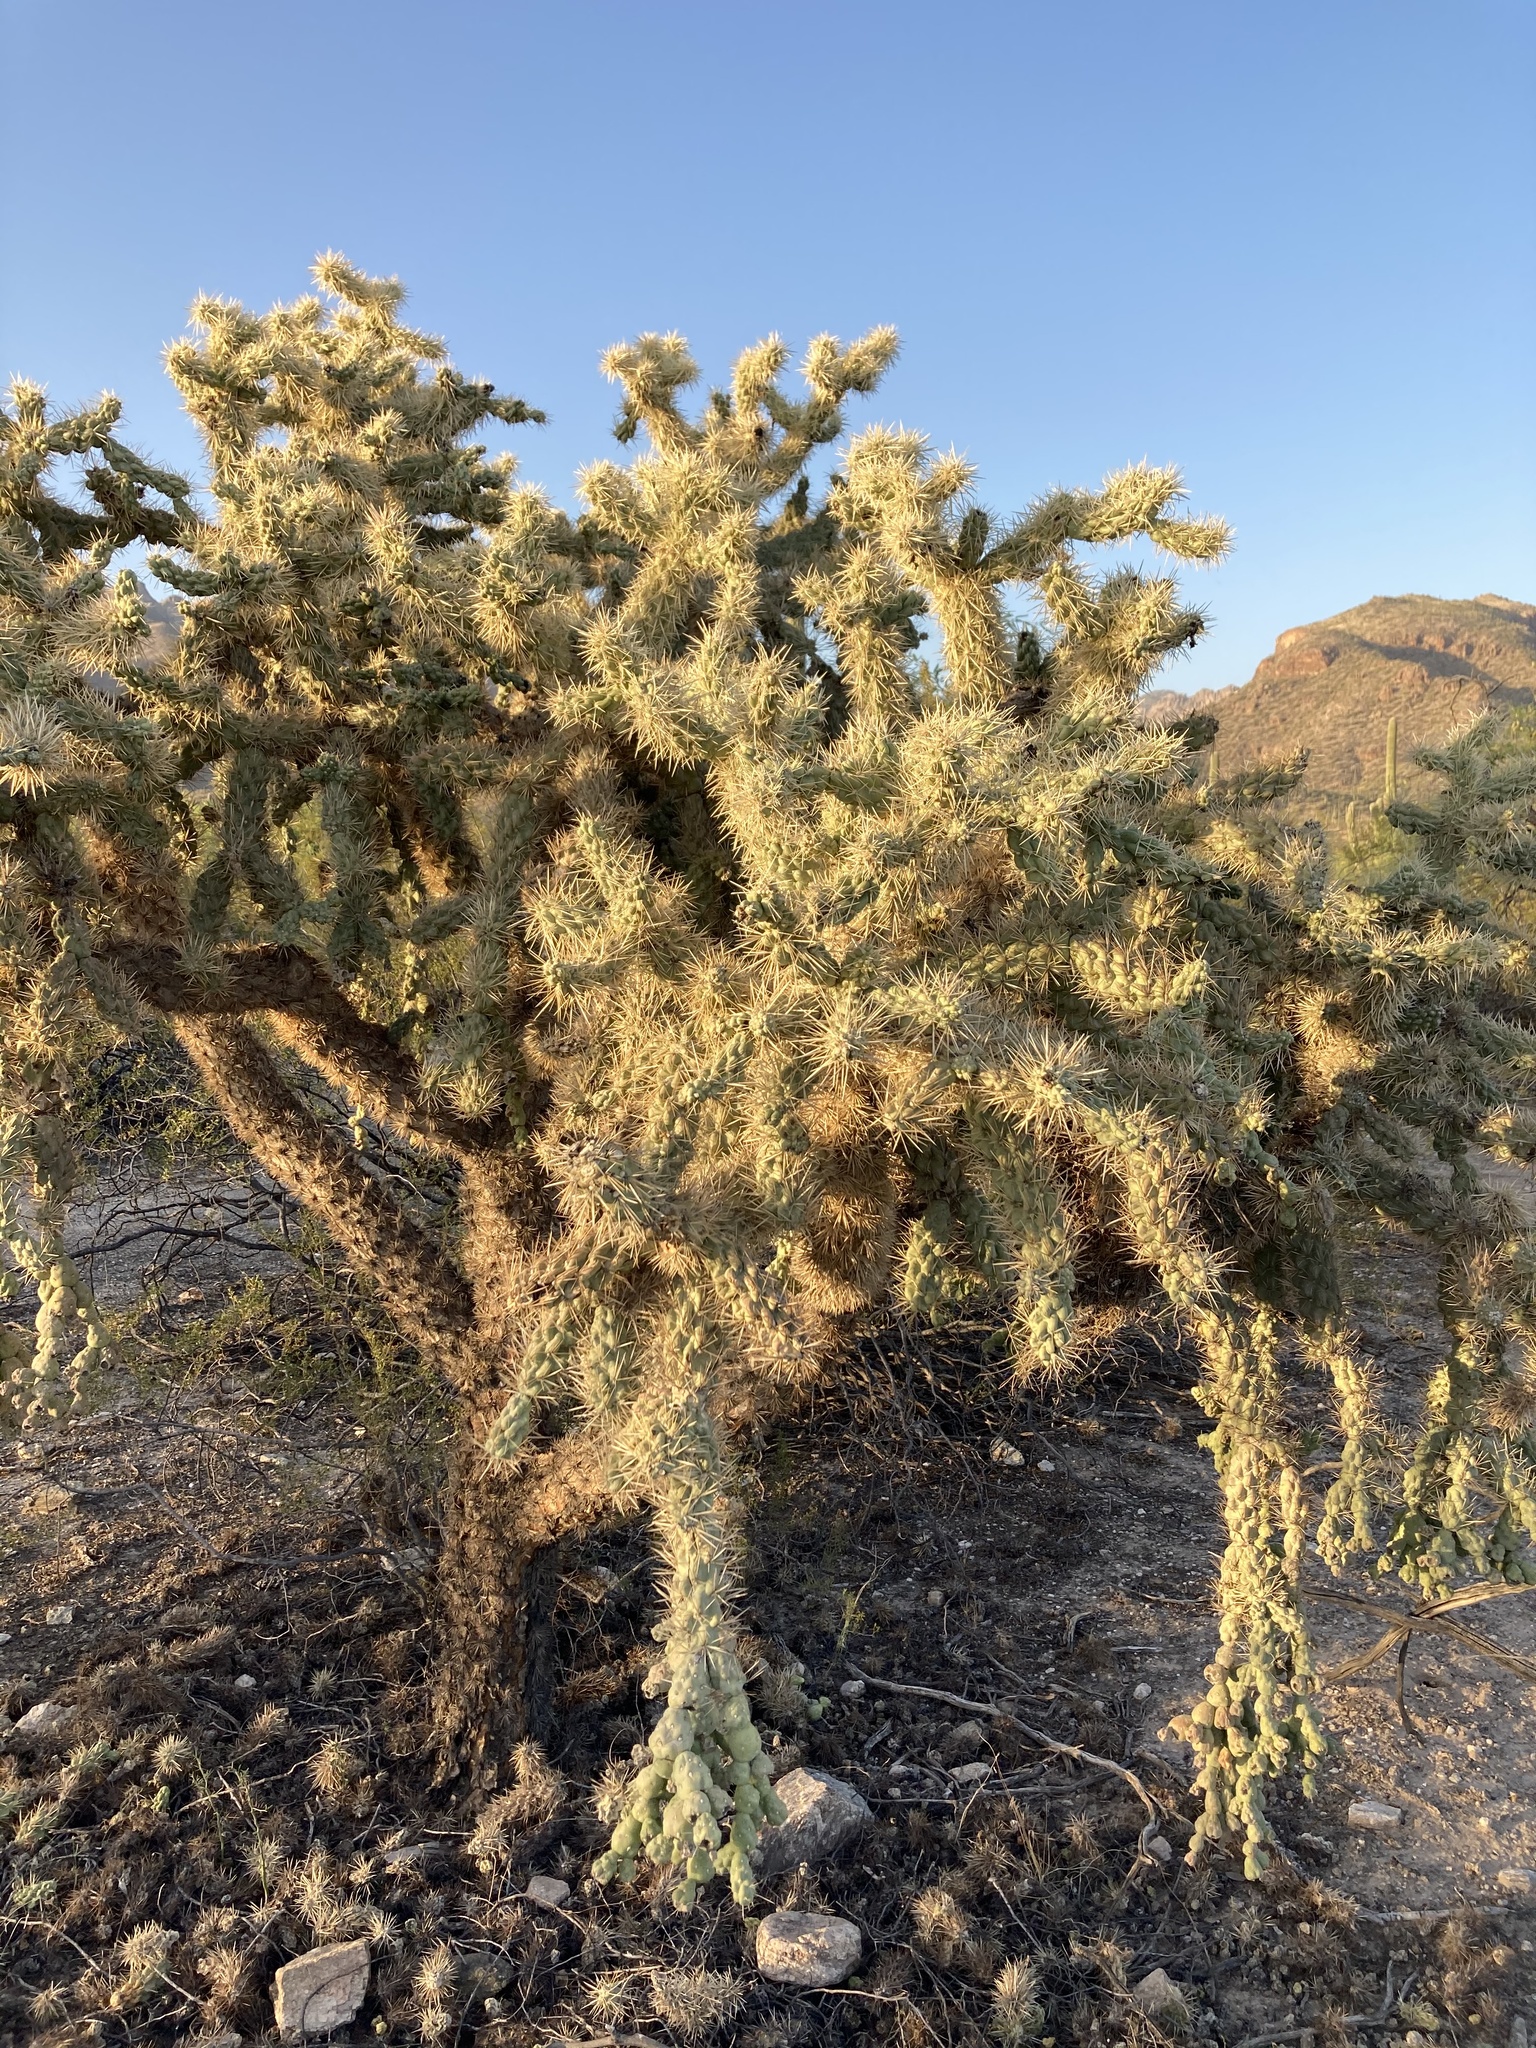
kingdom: Plantae
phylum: Tracheophyta
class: Magnoliopsida
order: Caryophyllales
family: Cactaceae
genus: Cylindropuntia
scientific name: Cylindropuntia fulgida
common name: Jumping cholla
